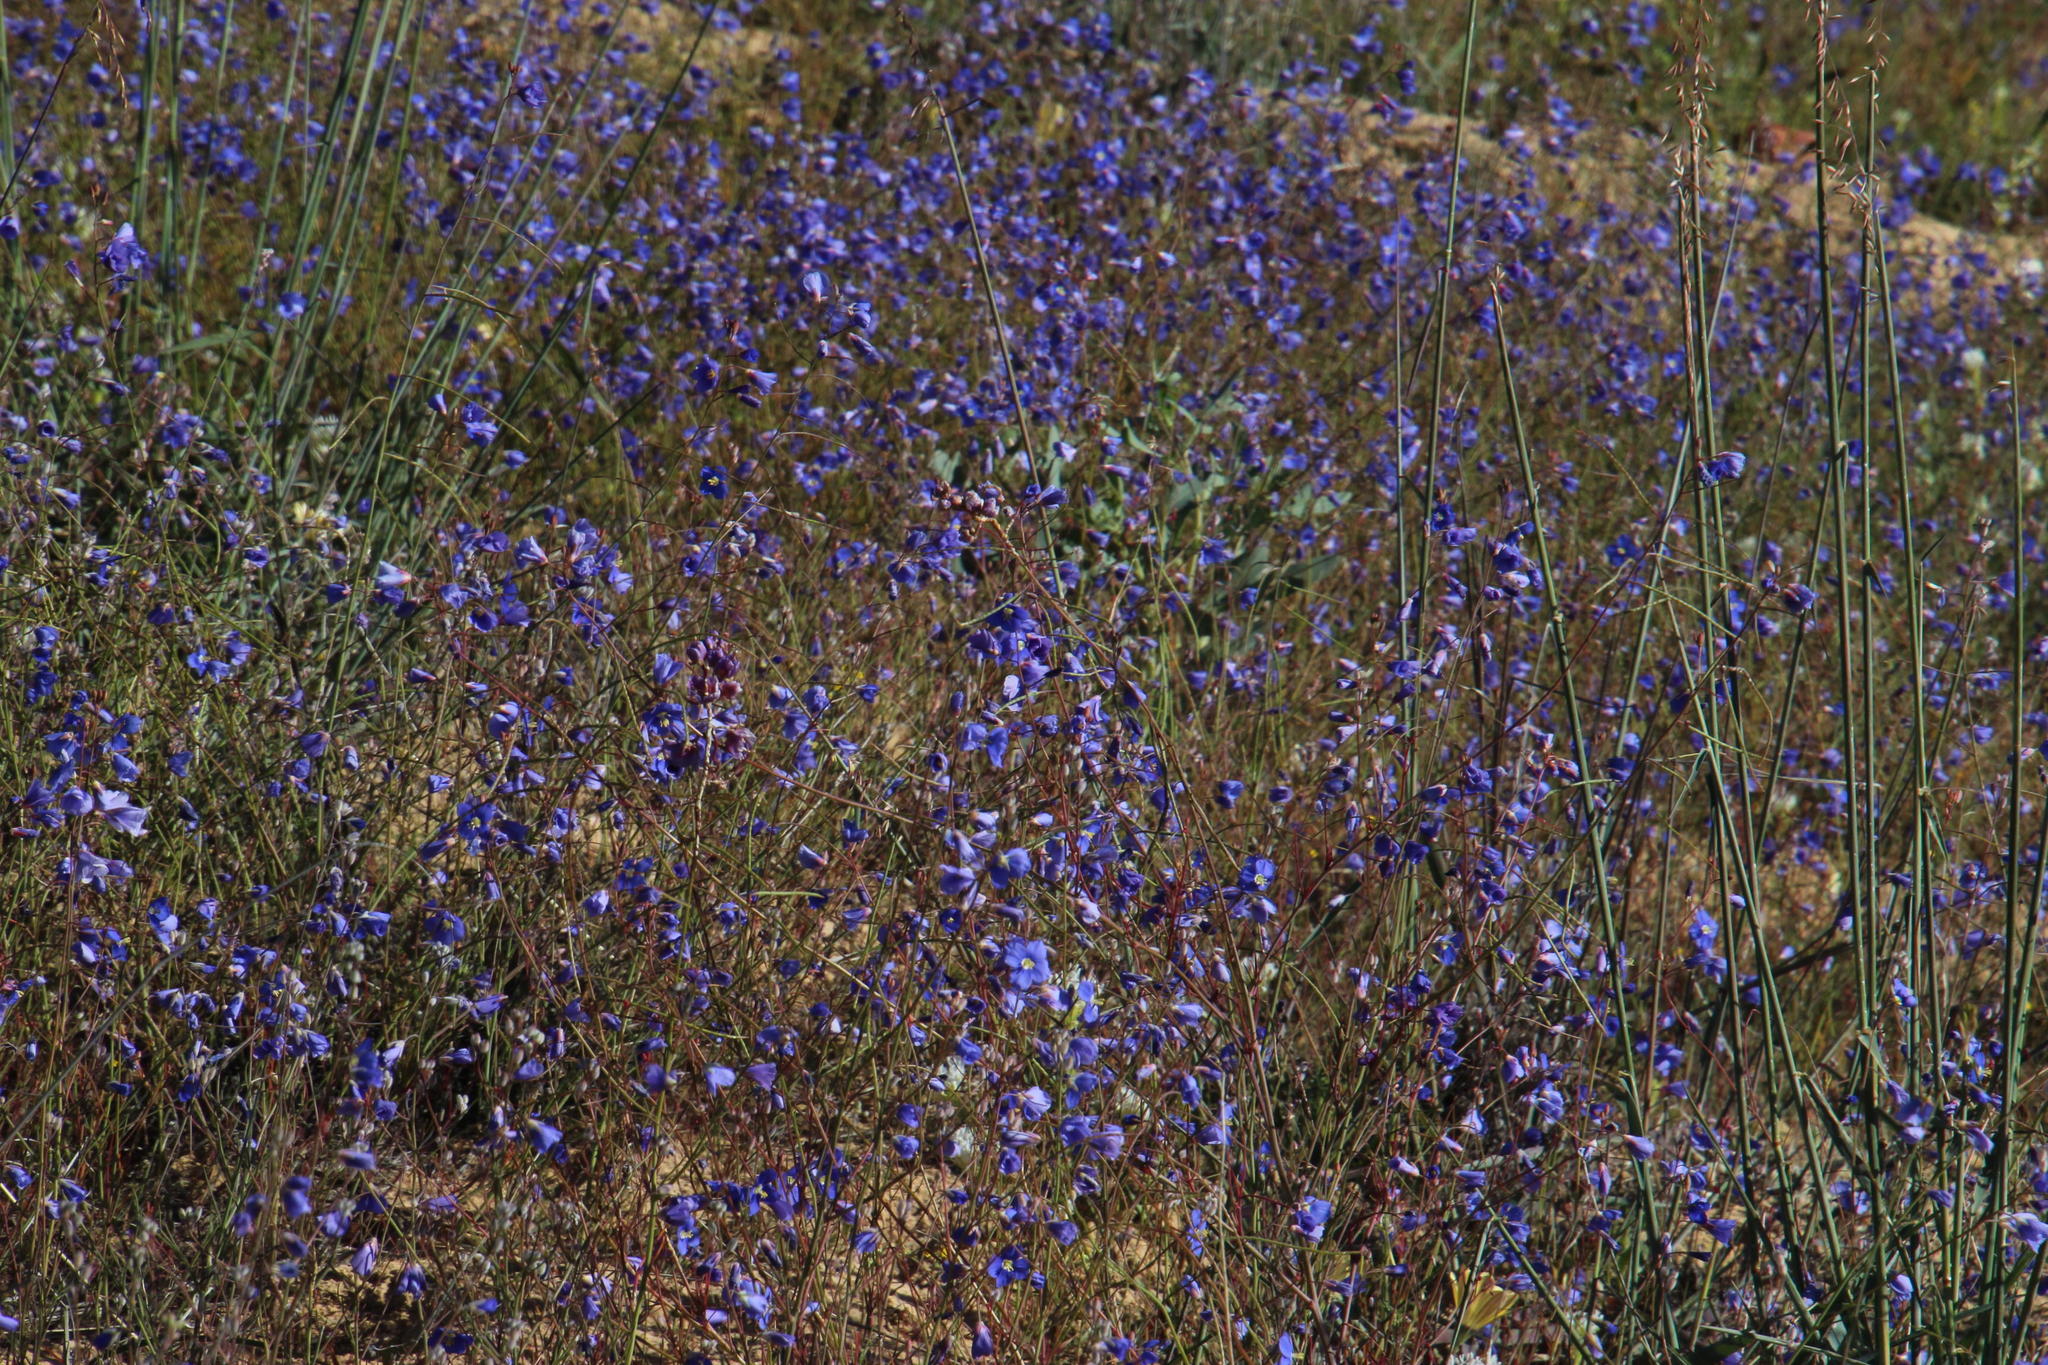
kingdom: Plantae
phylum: Tracheophyta
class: Magnoliopsida
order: Brassicales
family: Brassicaceae
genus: Heliophila
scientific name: Heliophila arenaria
